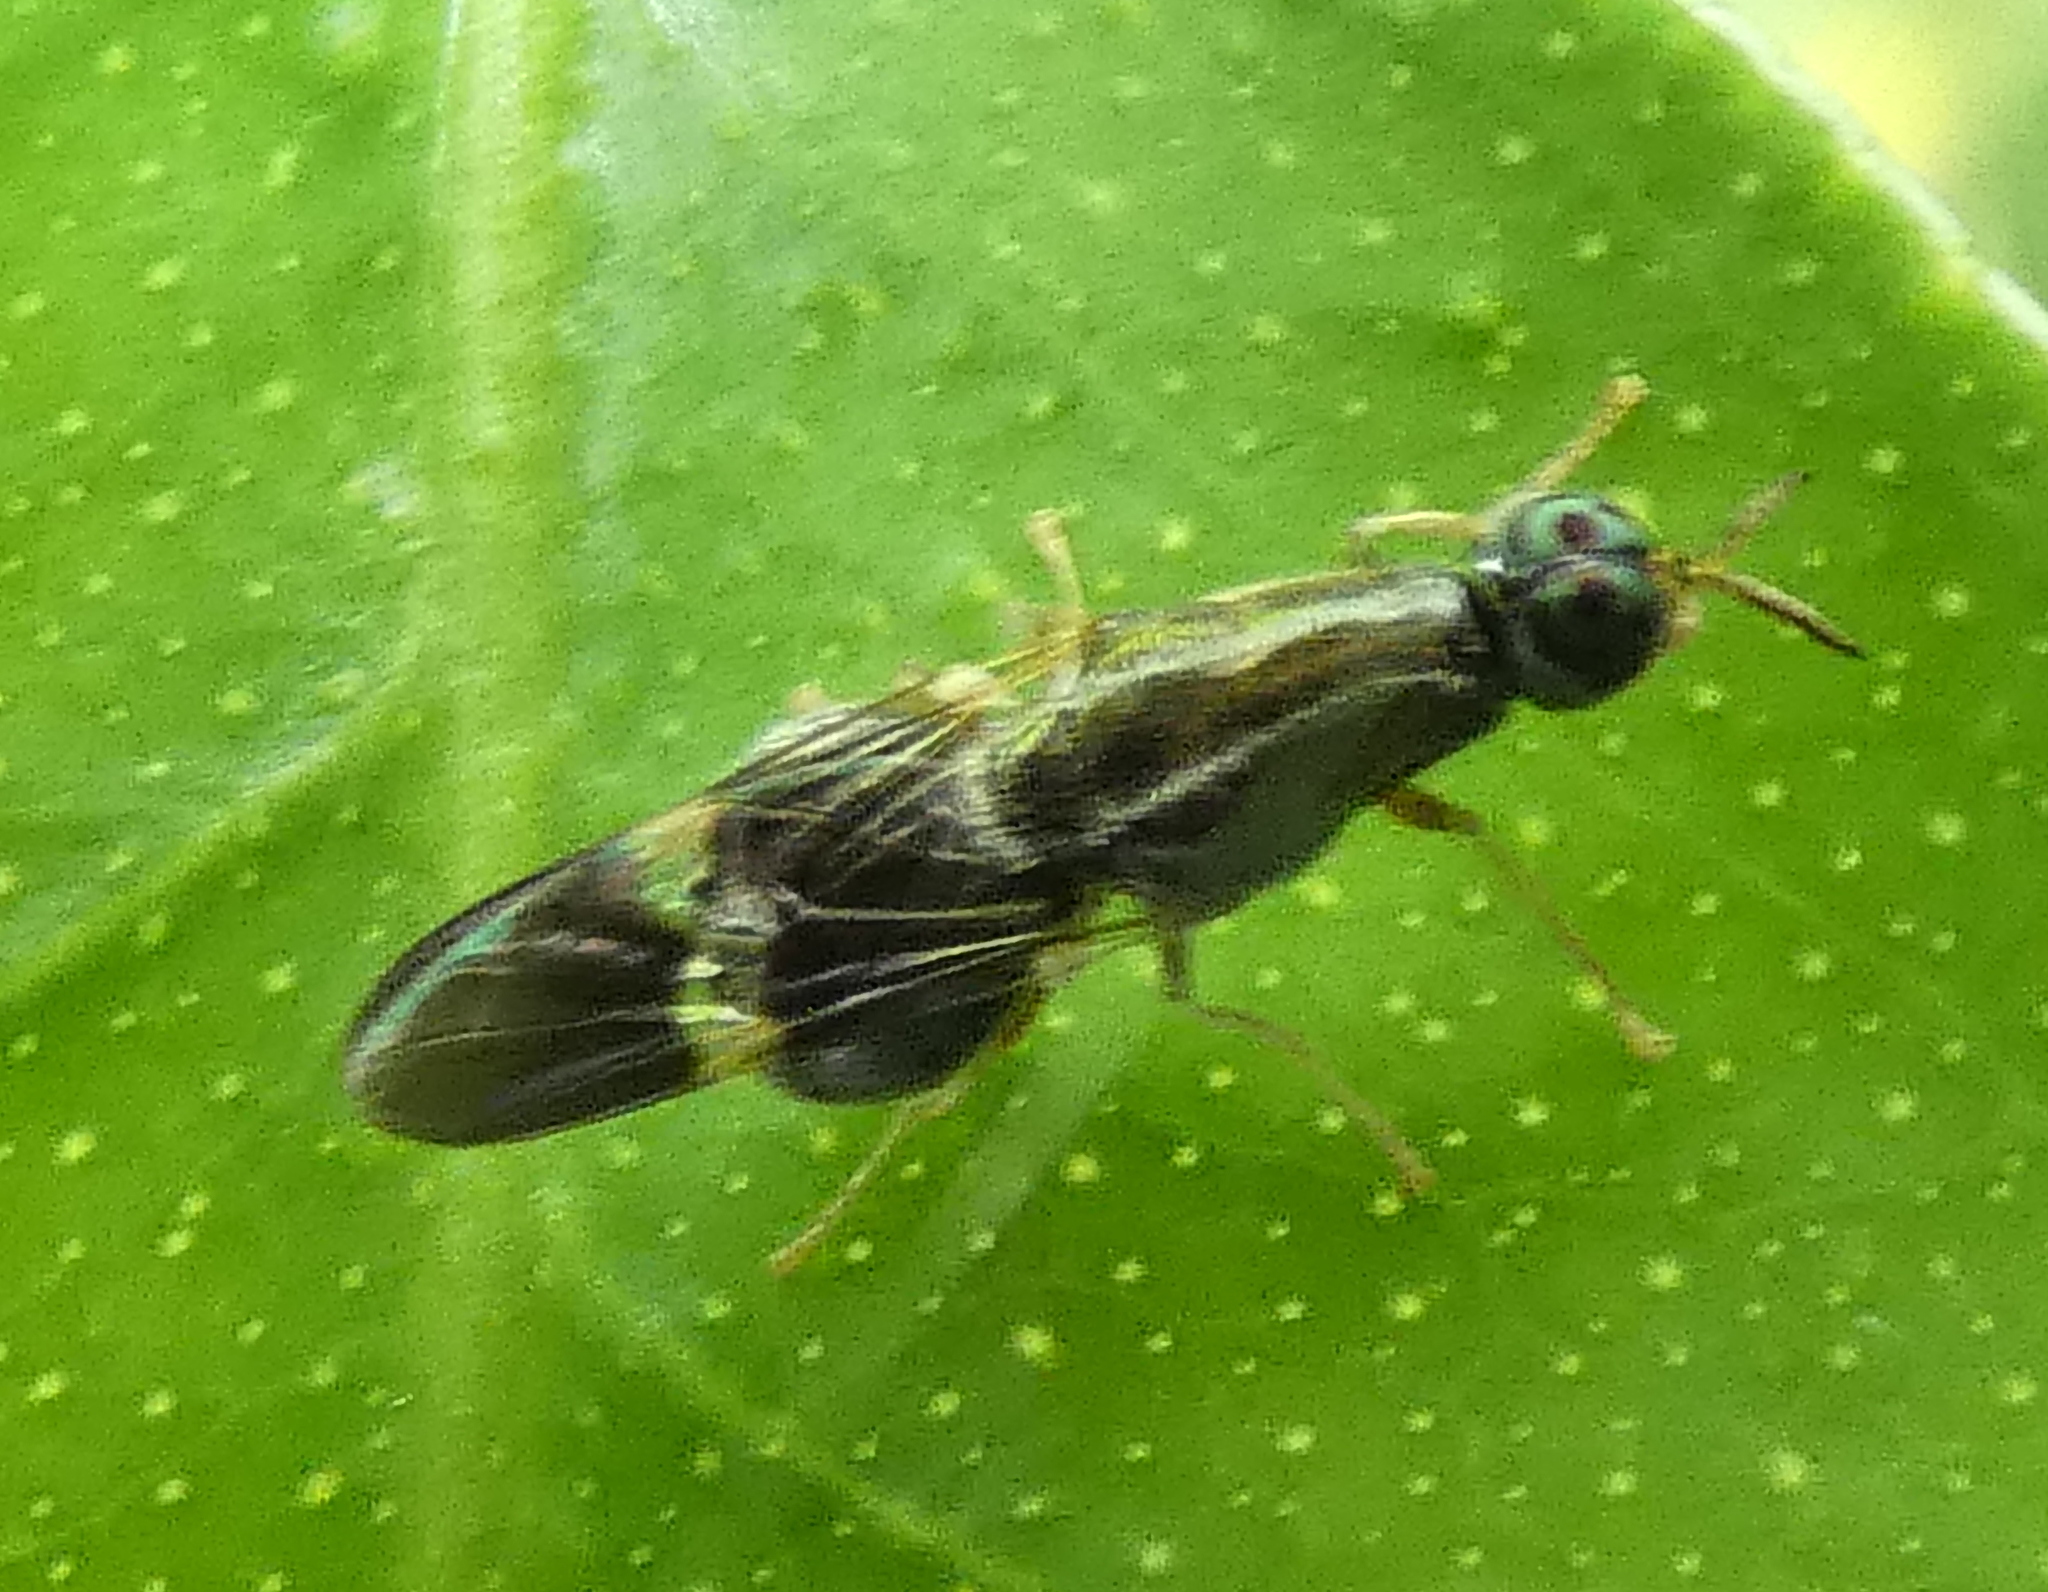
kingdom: Animalia
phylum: Arthropoda
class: Insecta
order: Diptera
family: Stratiomyidae
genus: Acanthinomyia
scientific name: Acanthinomyia elongata
